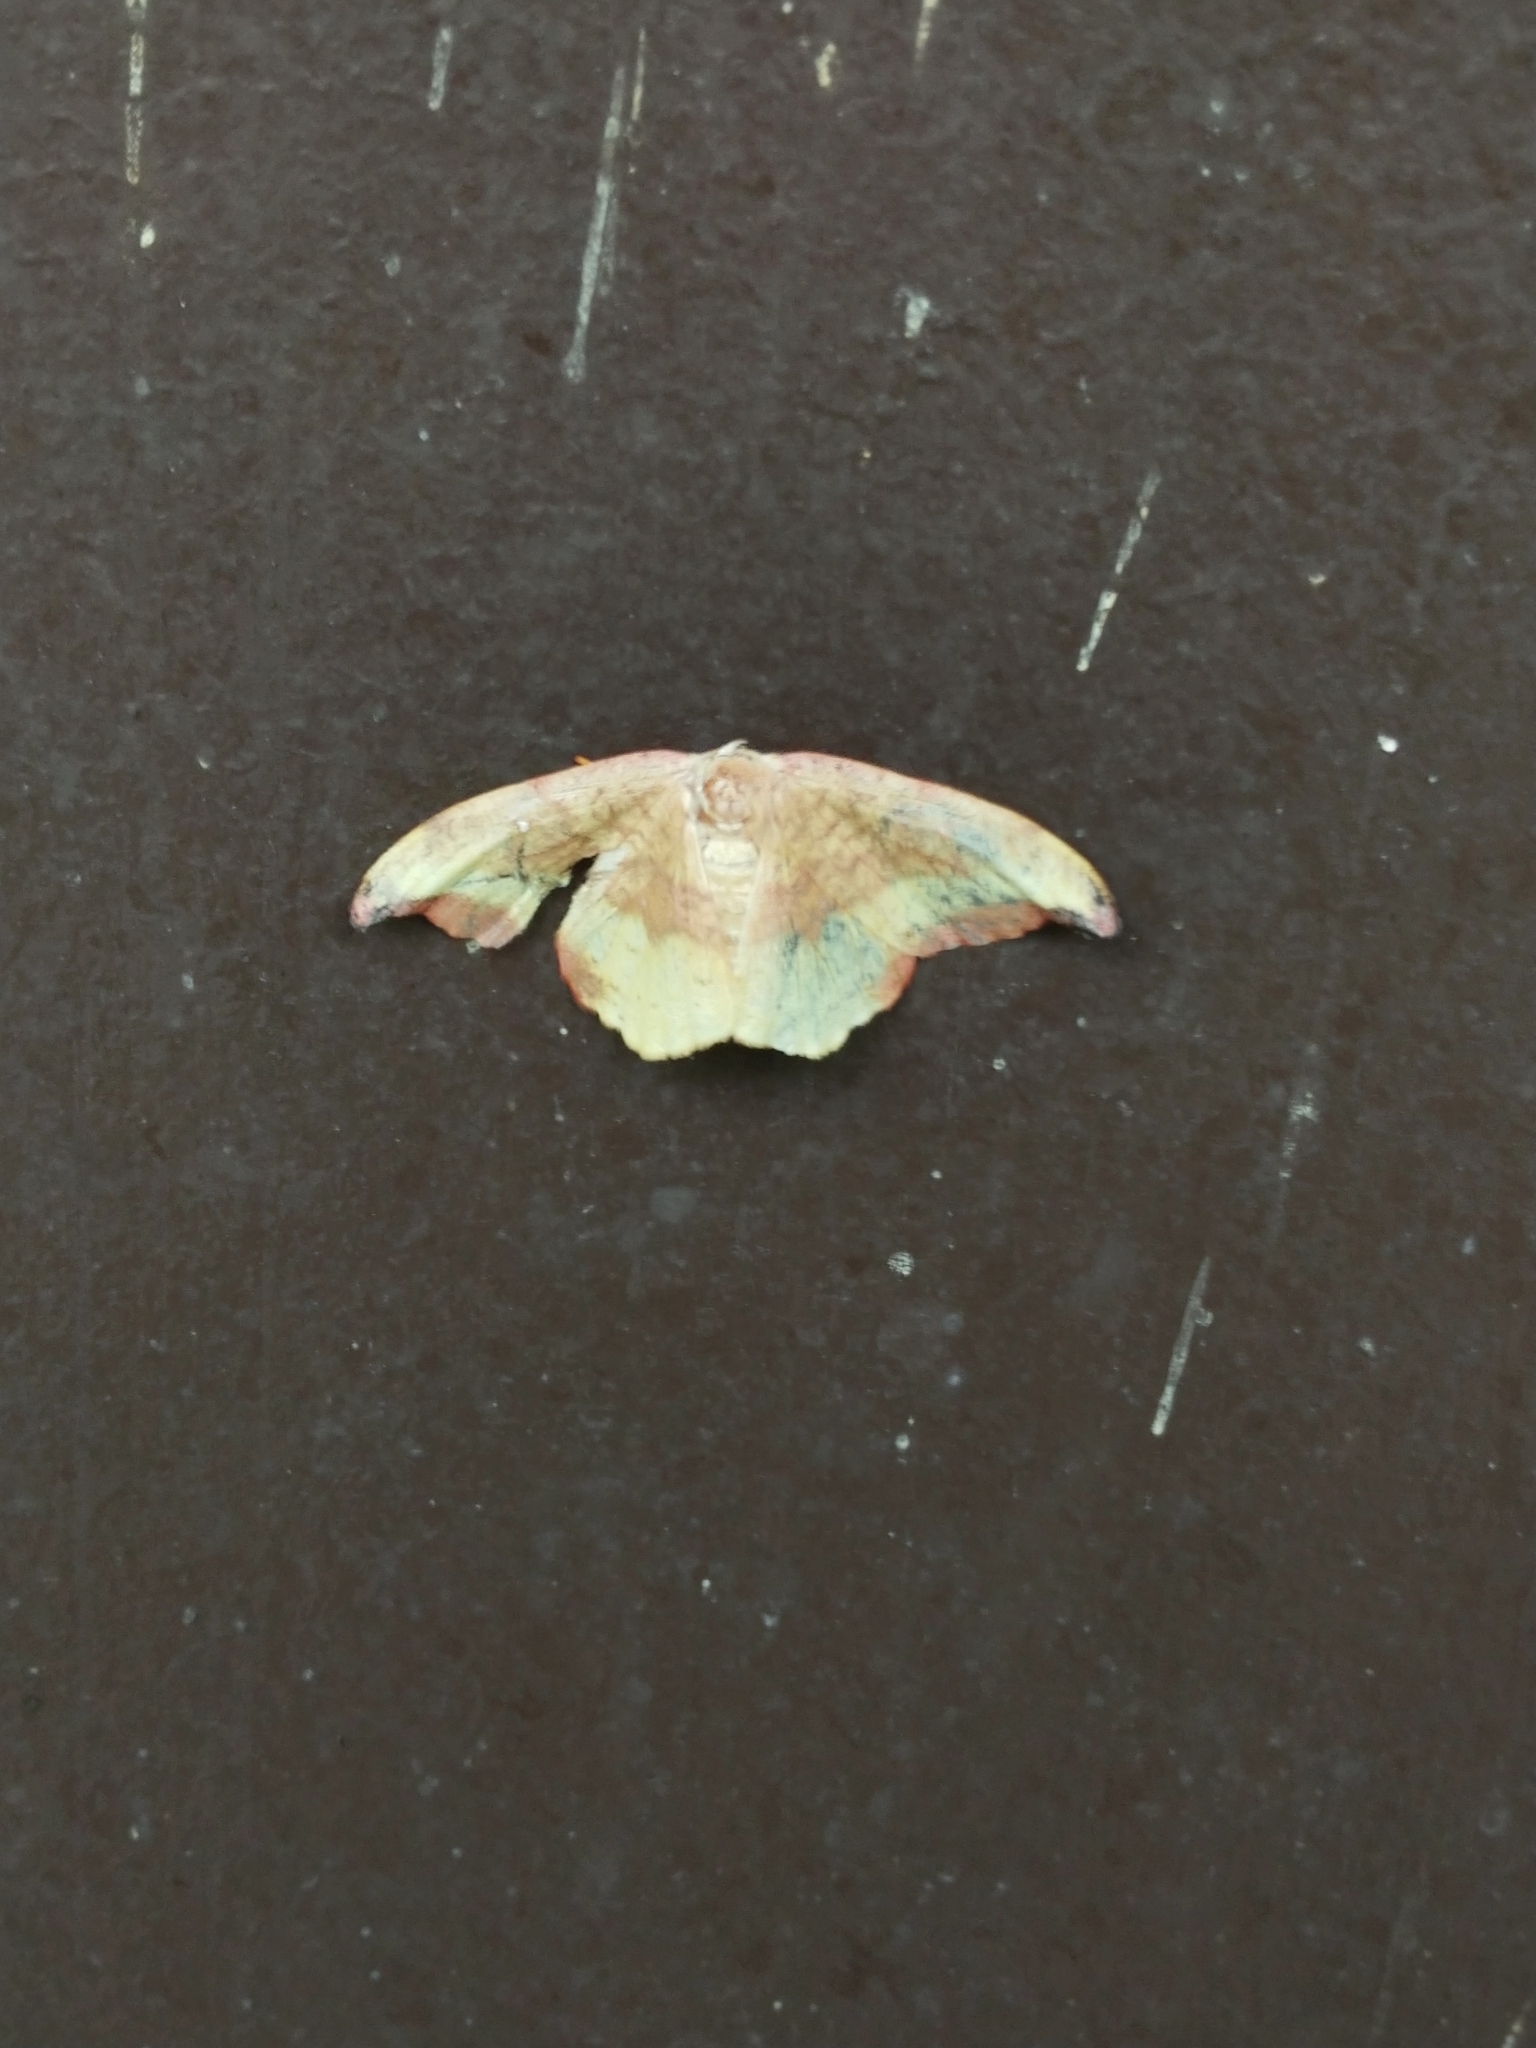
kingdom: Animalia
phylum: Arthropoda
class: Insecta
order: Lepidoptera
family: Drepanidae
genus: Oreta
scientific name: Oreta rosea
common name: Rose hooktip
